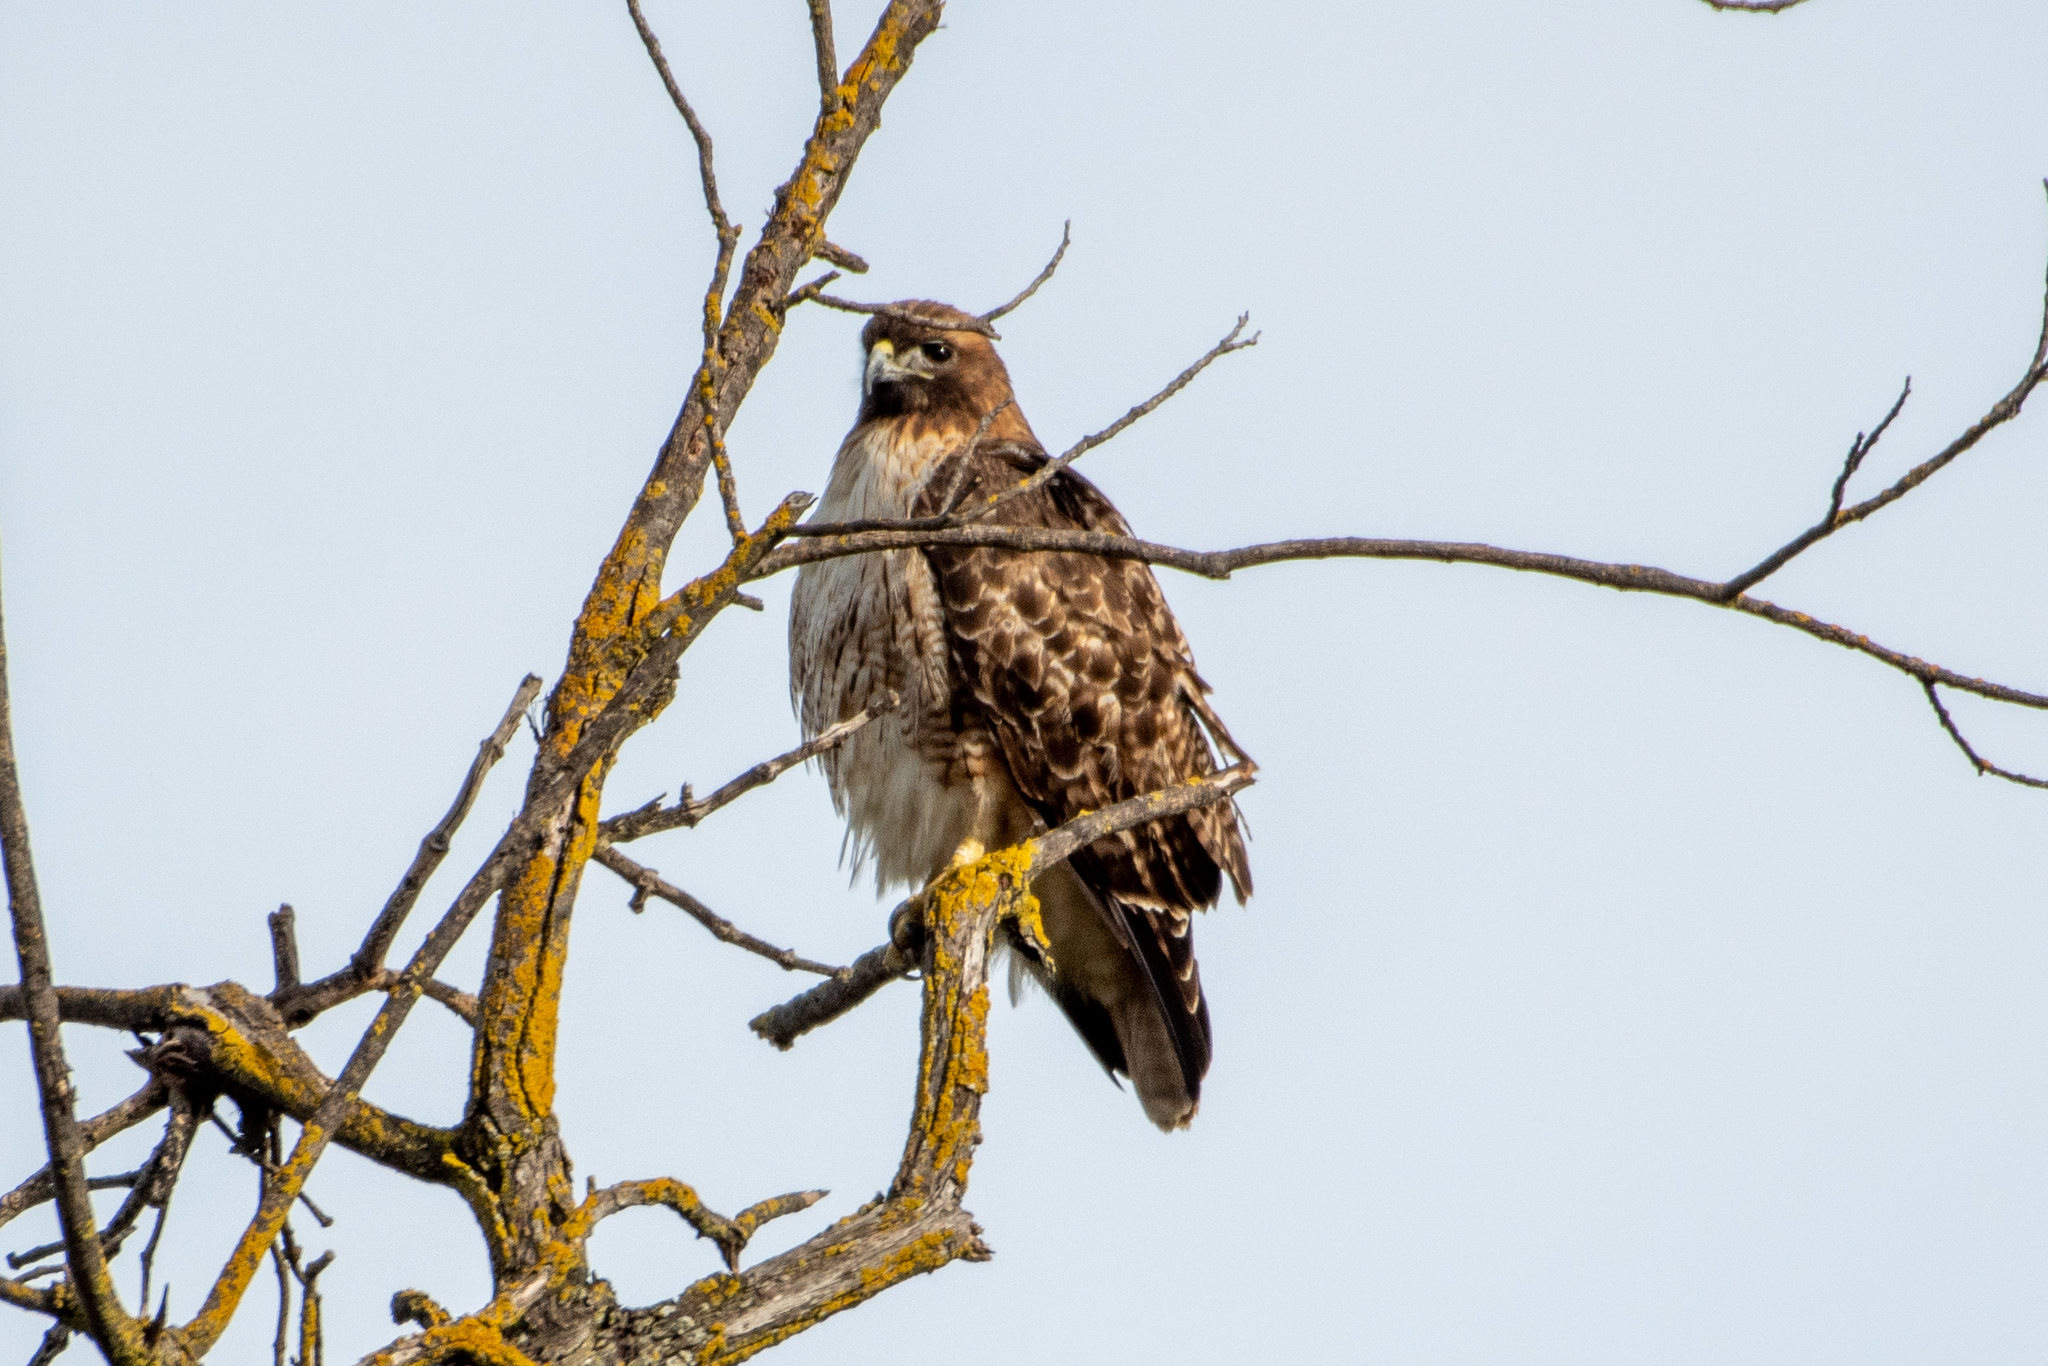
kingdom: Animalia
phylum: Chordata
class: Aves
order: Accipitriformes
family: Accipitridae
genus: Buteo
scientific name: Buteo jamaicensis
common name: Red-tailed hawk
